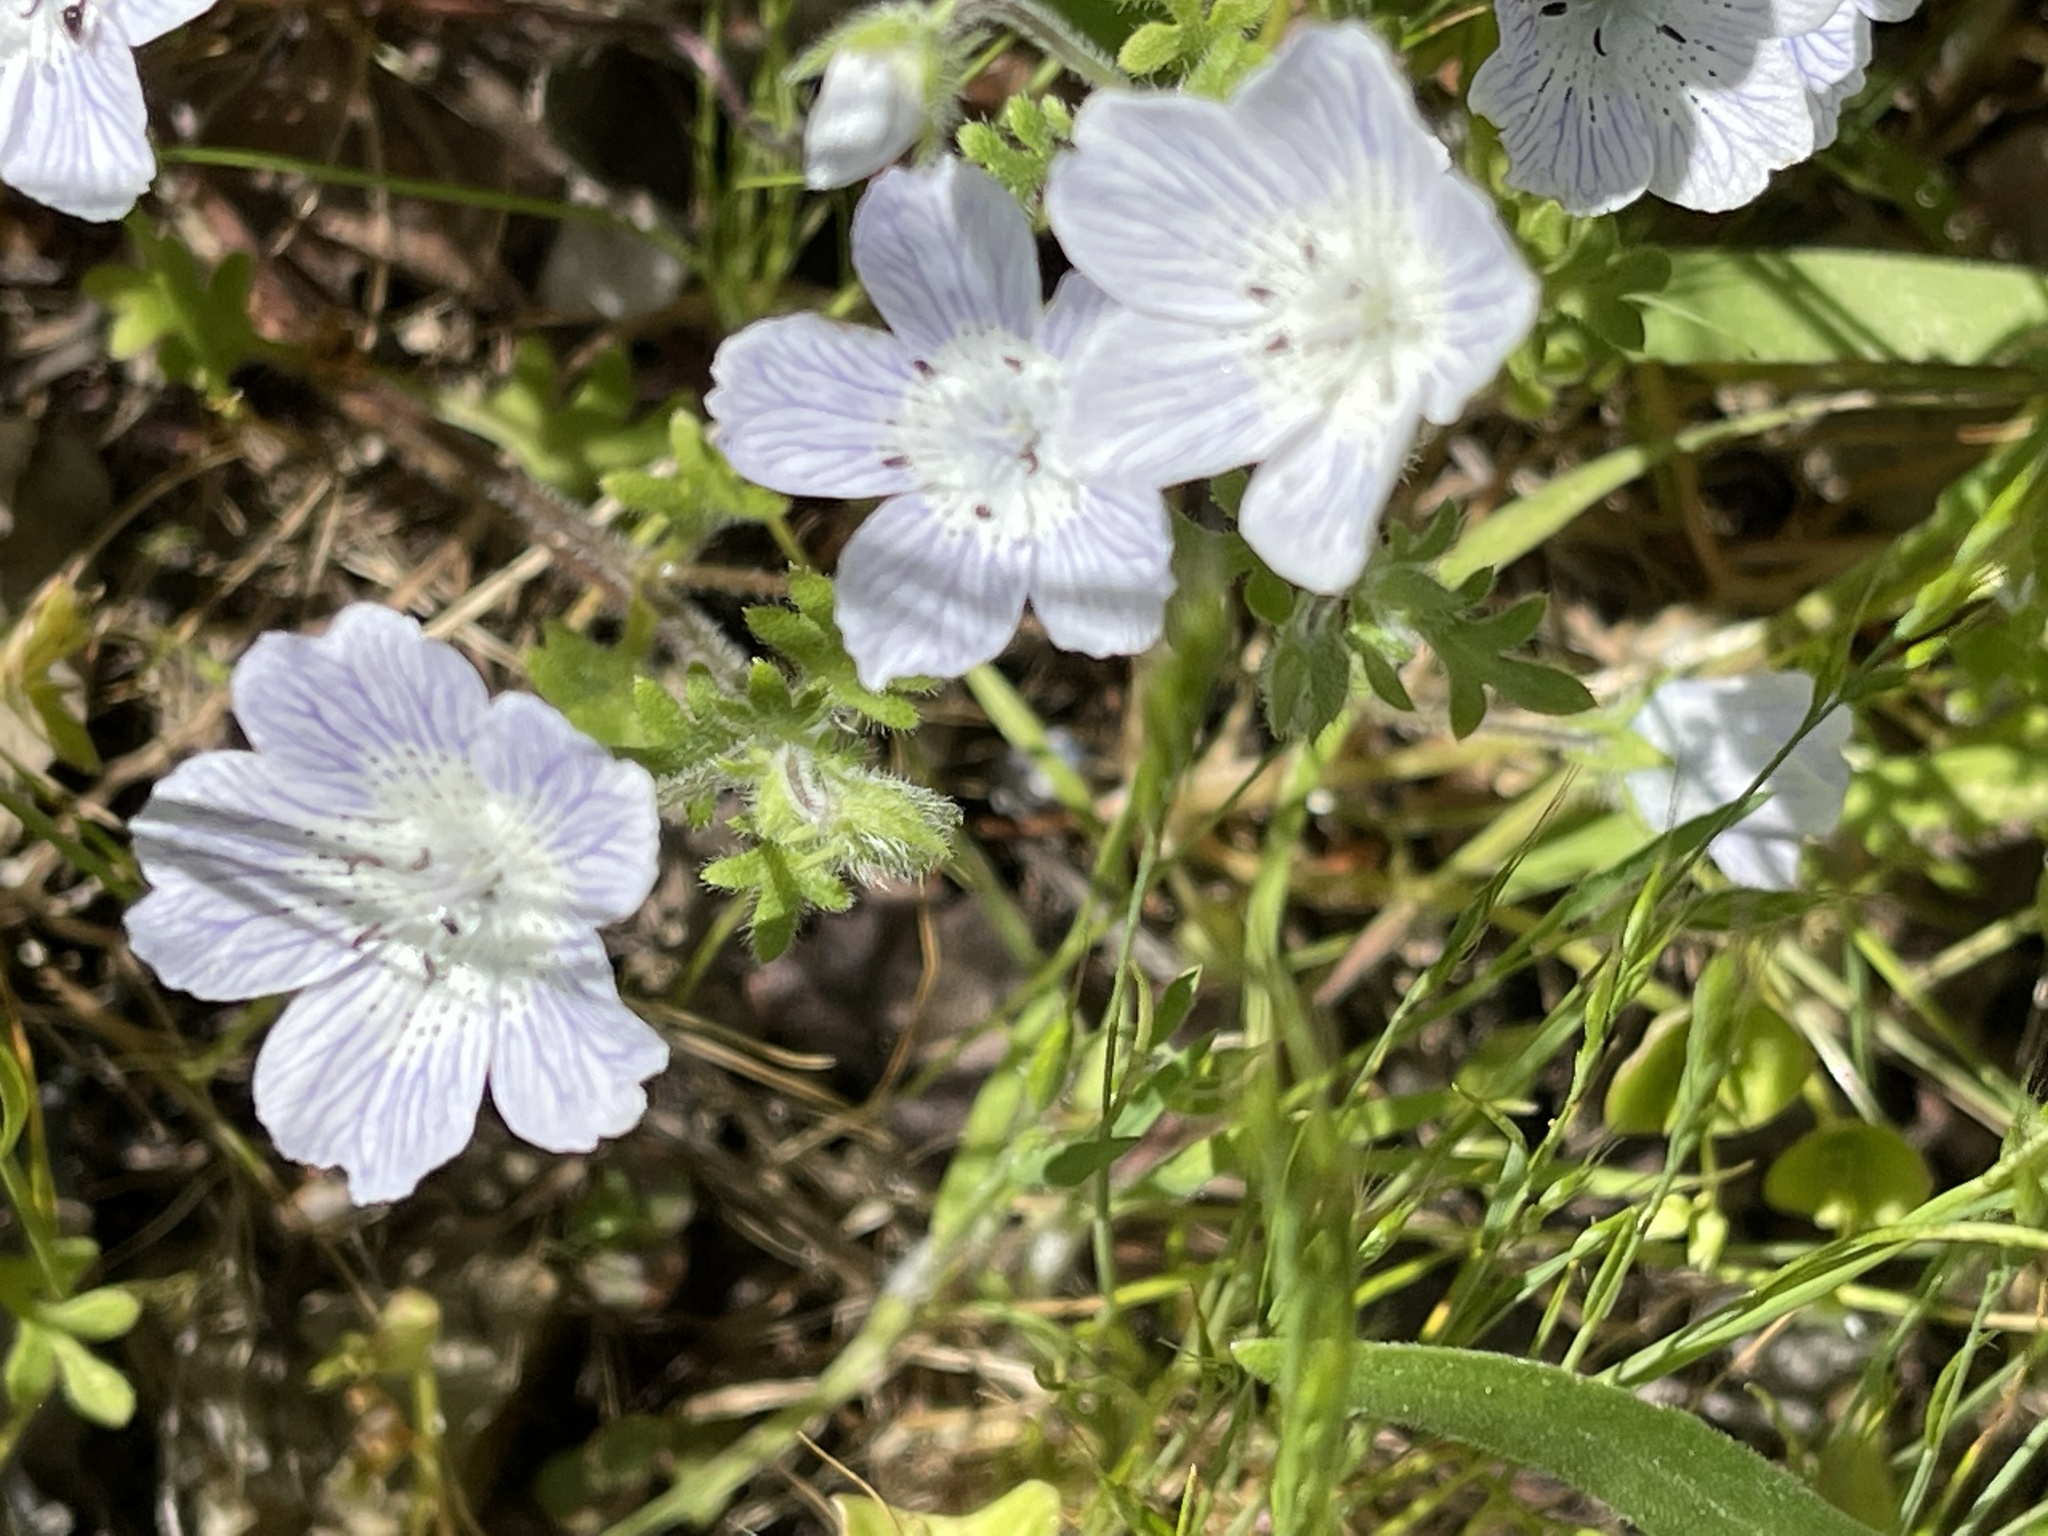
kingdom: Plantae
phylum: Tracheophyta
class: Magnoliopsida
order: Boraginales
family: Hydrophyllaceae
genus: Nemophila
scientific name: Nemophila menziesii
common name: Baby's-blue-eyes
